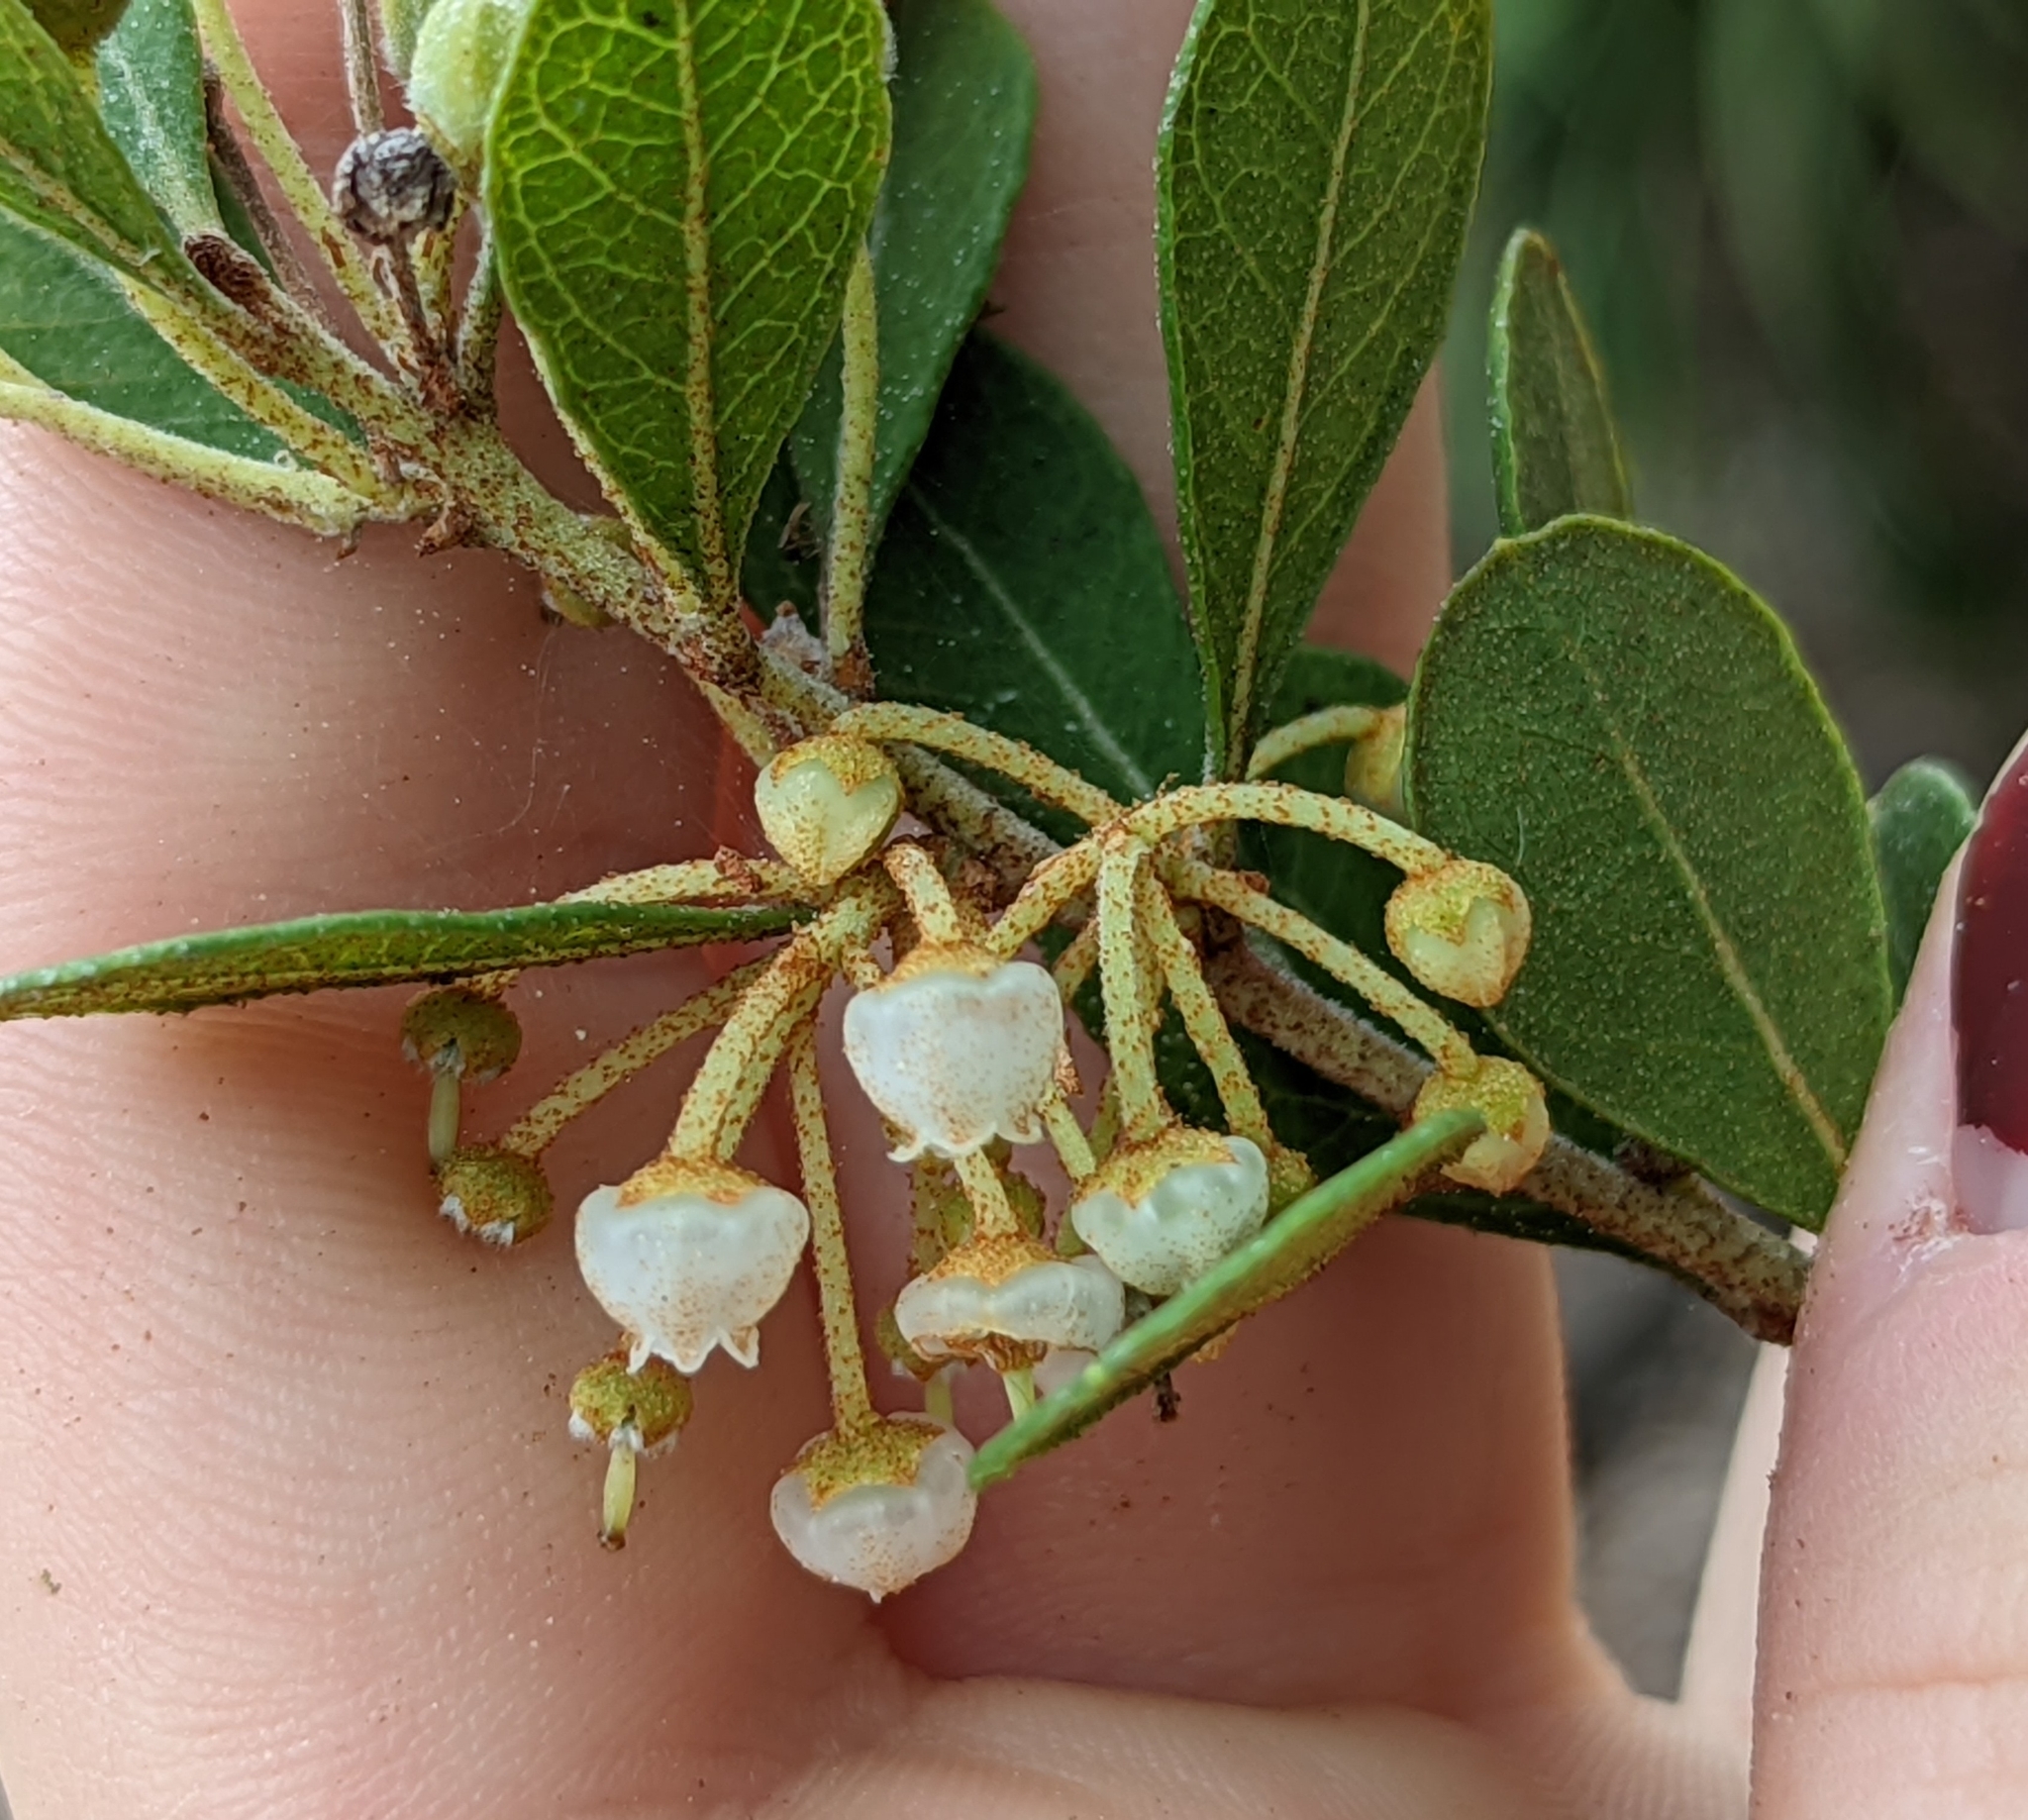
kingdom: Plantae
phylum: Tracheophyta
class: Magnoliopsida
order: Ericales
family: Ericaceae
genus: Lyonia
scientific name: Lyonia fruticosa
